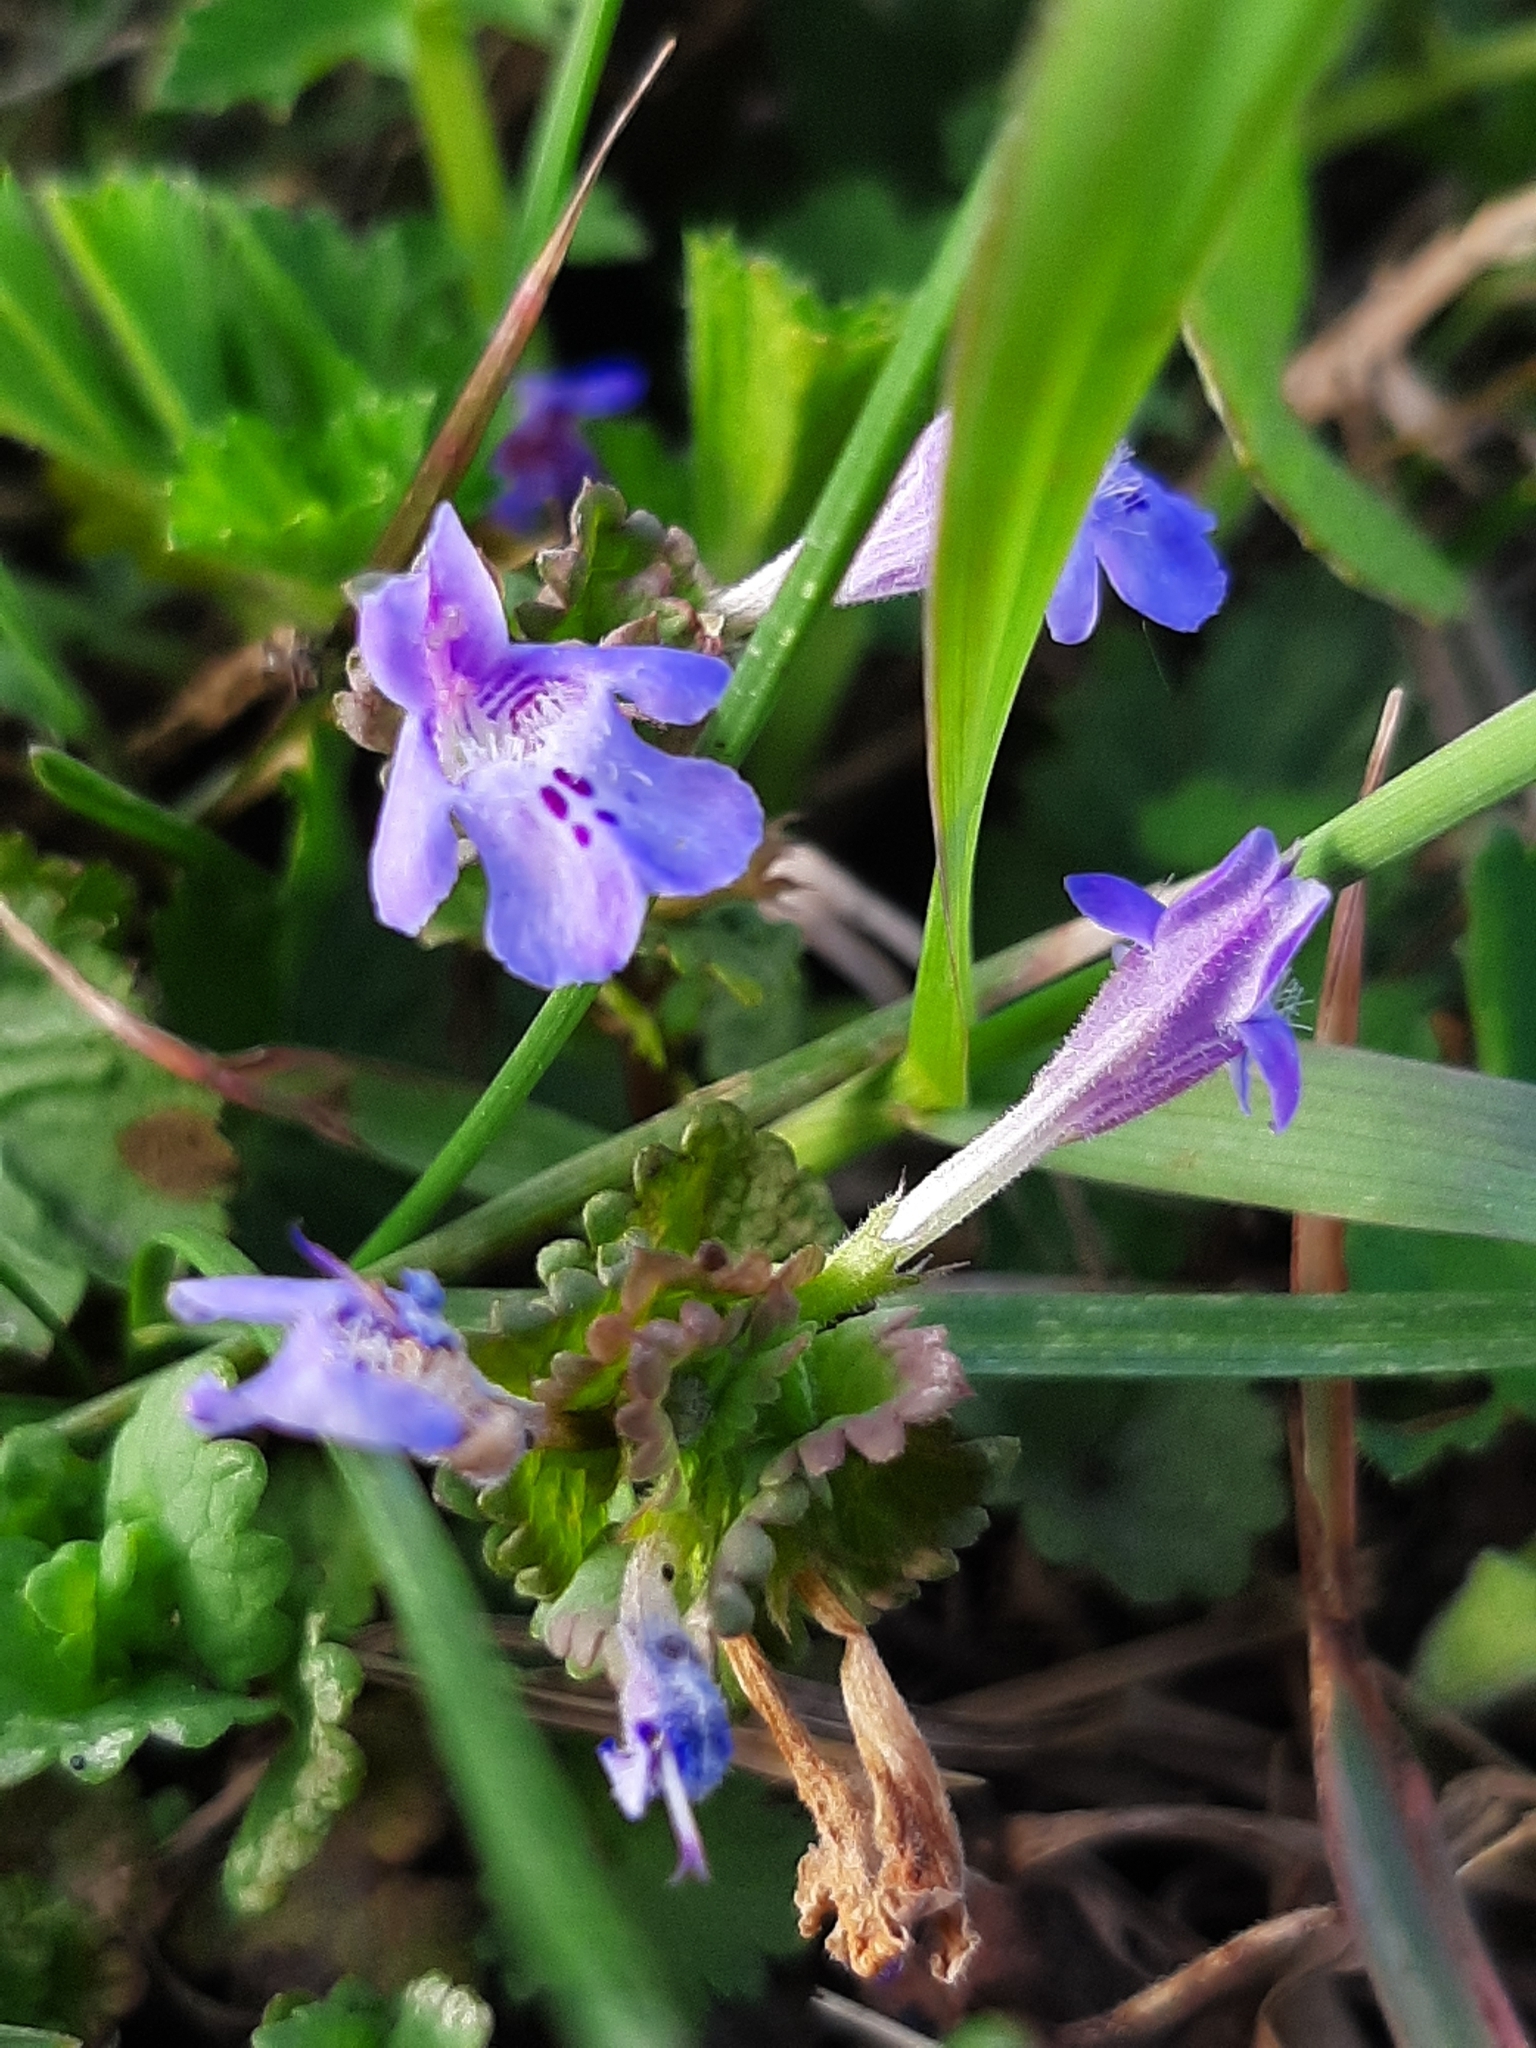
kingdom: Plantae
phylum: Tracheophyta
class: Magnoliopsida
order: Lamiales
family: Lamiaceae
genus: Glechoma
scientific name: Glechoma hederacea
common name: Ground ivy
